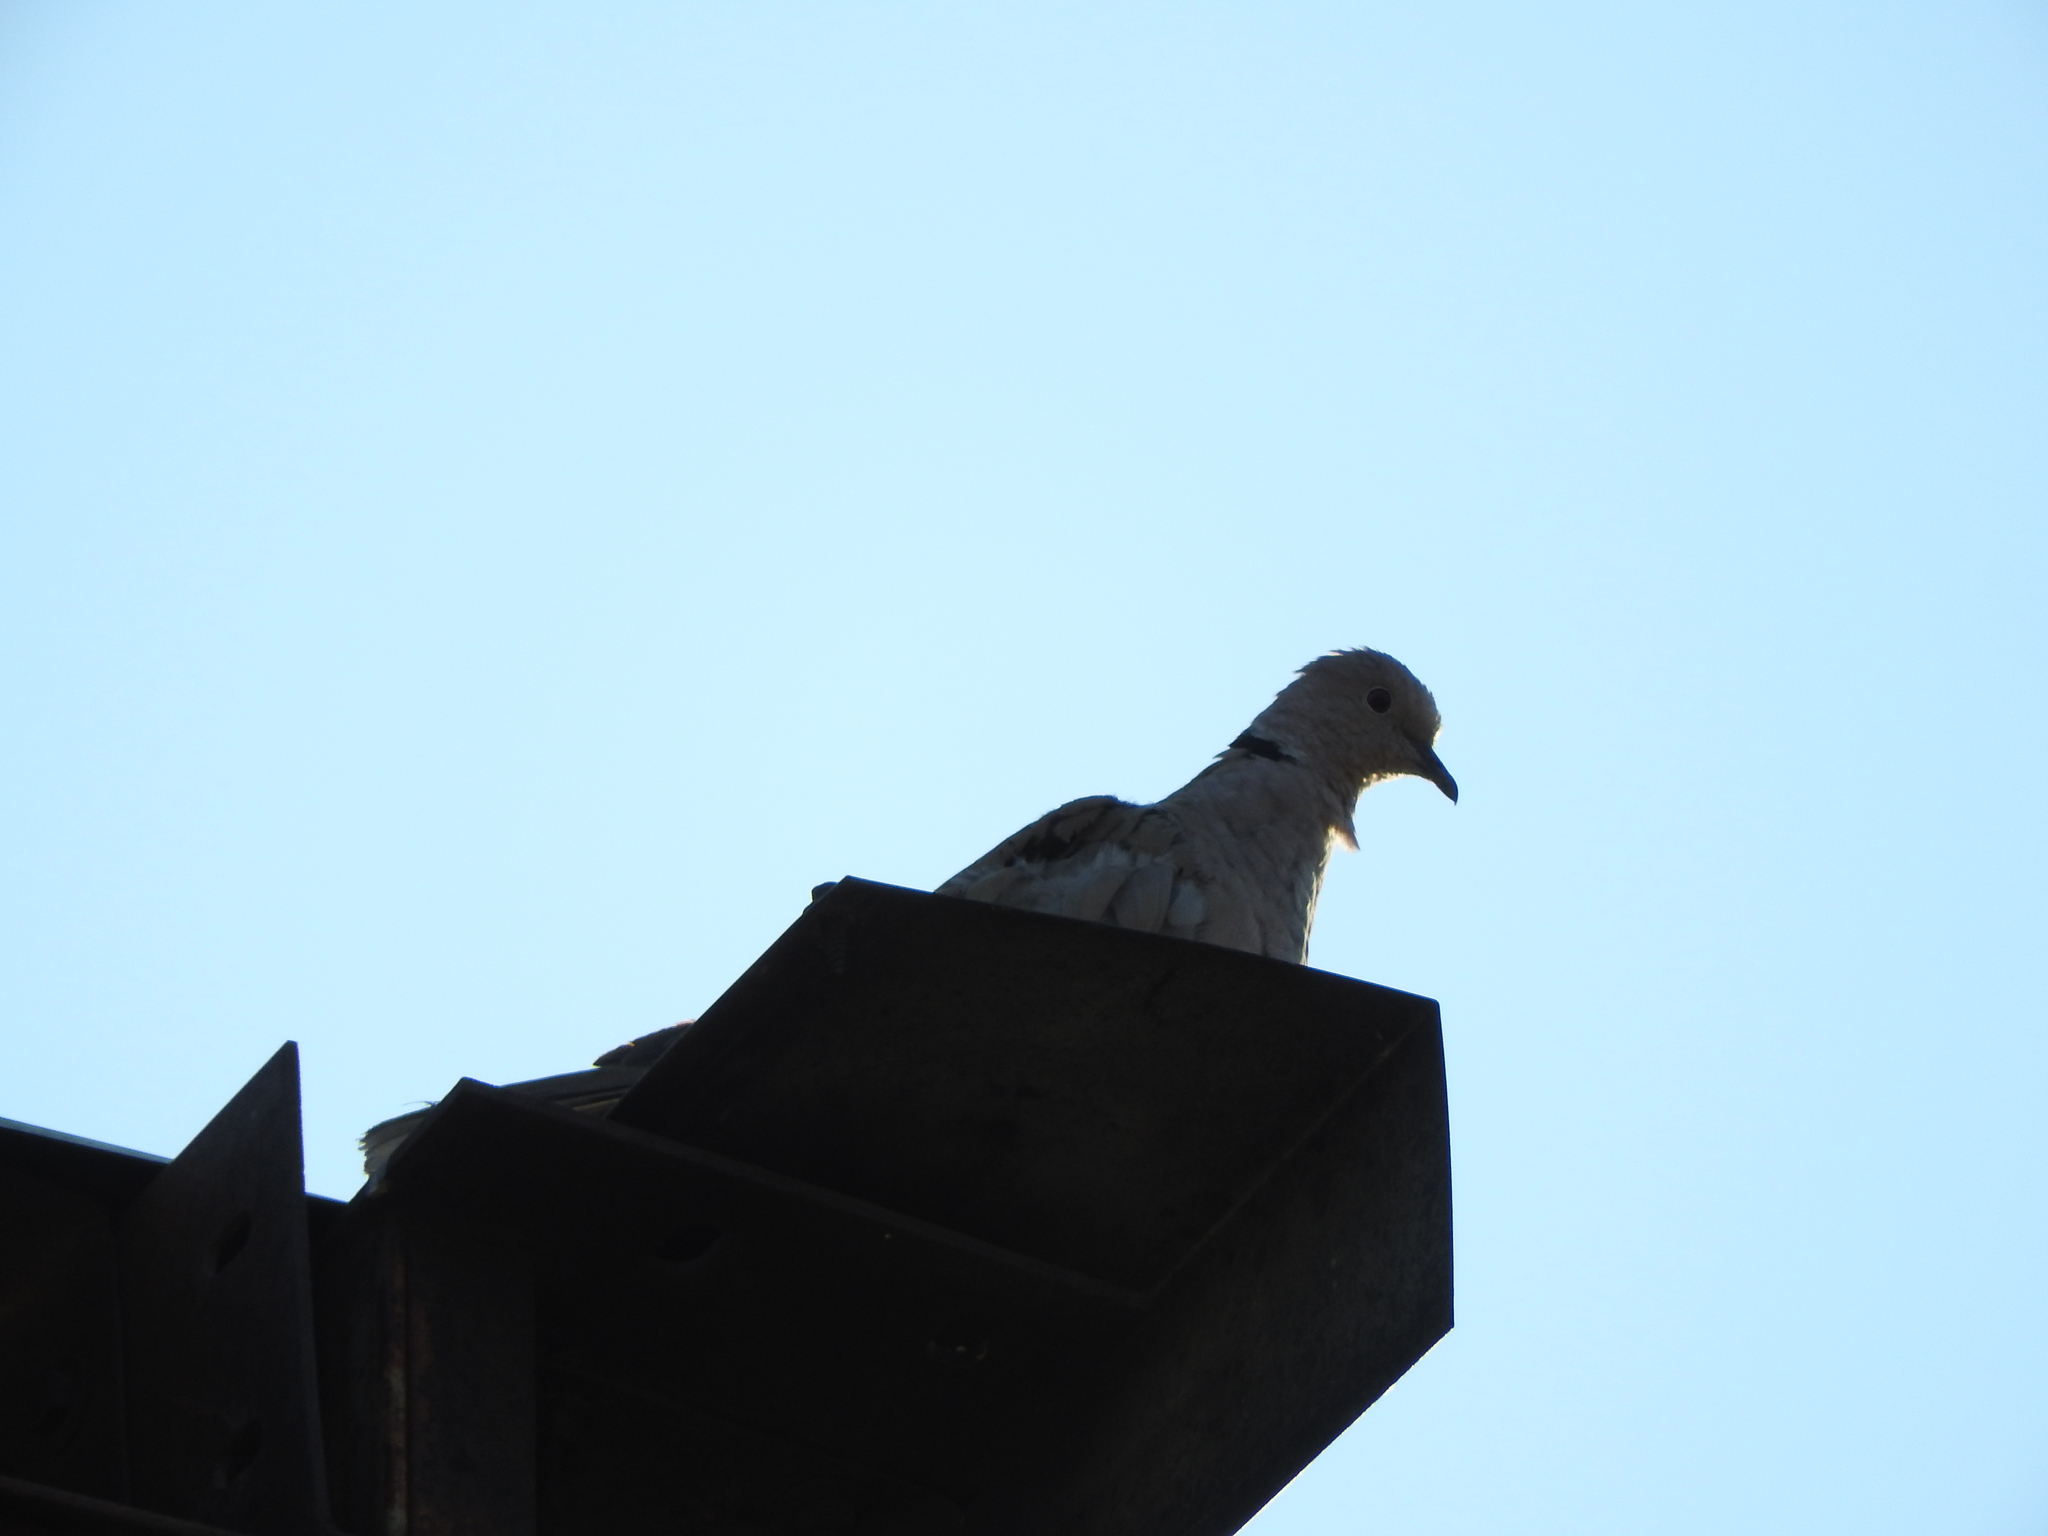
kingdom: Animalia
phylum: Chordata
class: Aves
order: Columbiformes
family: Columbidae
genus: Streptopelia
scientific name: Streptopelia decaocto
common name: Eurasian collared dove
